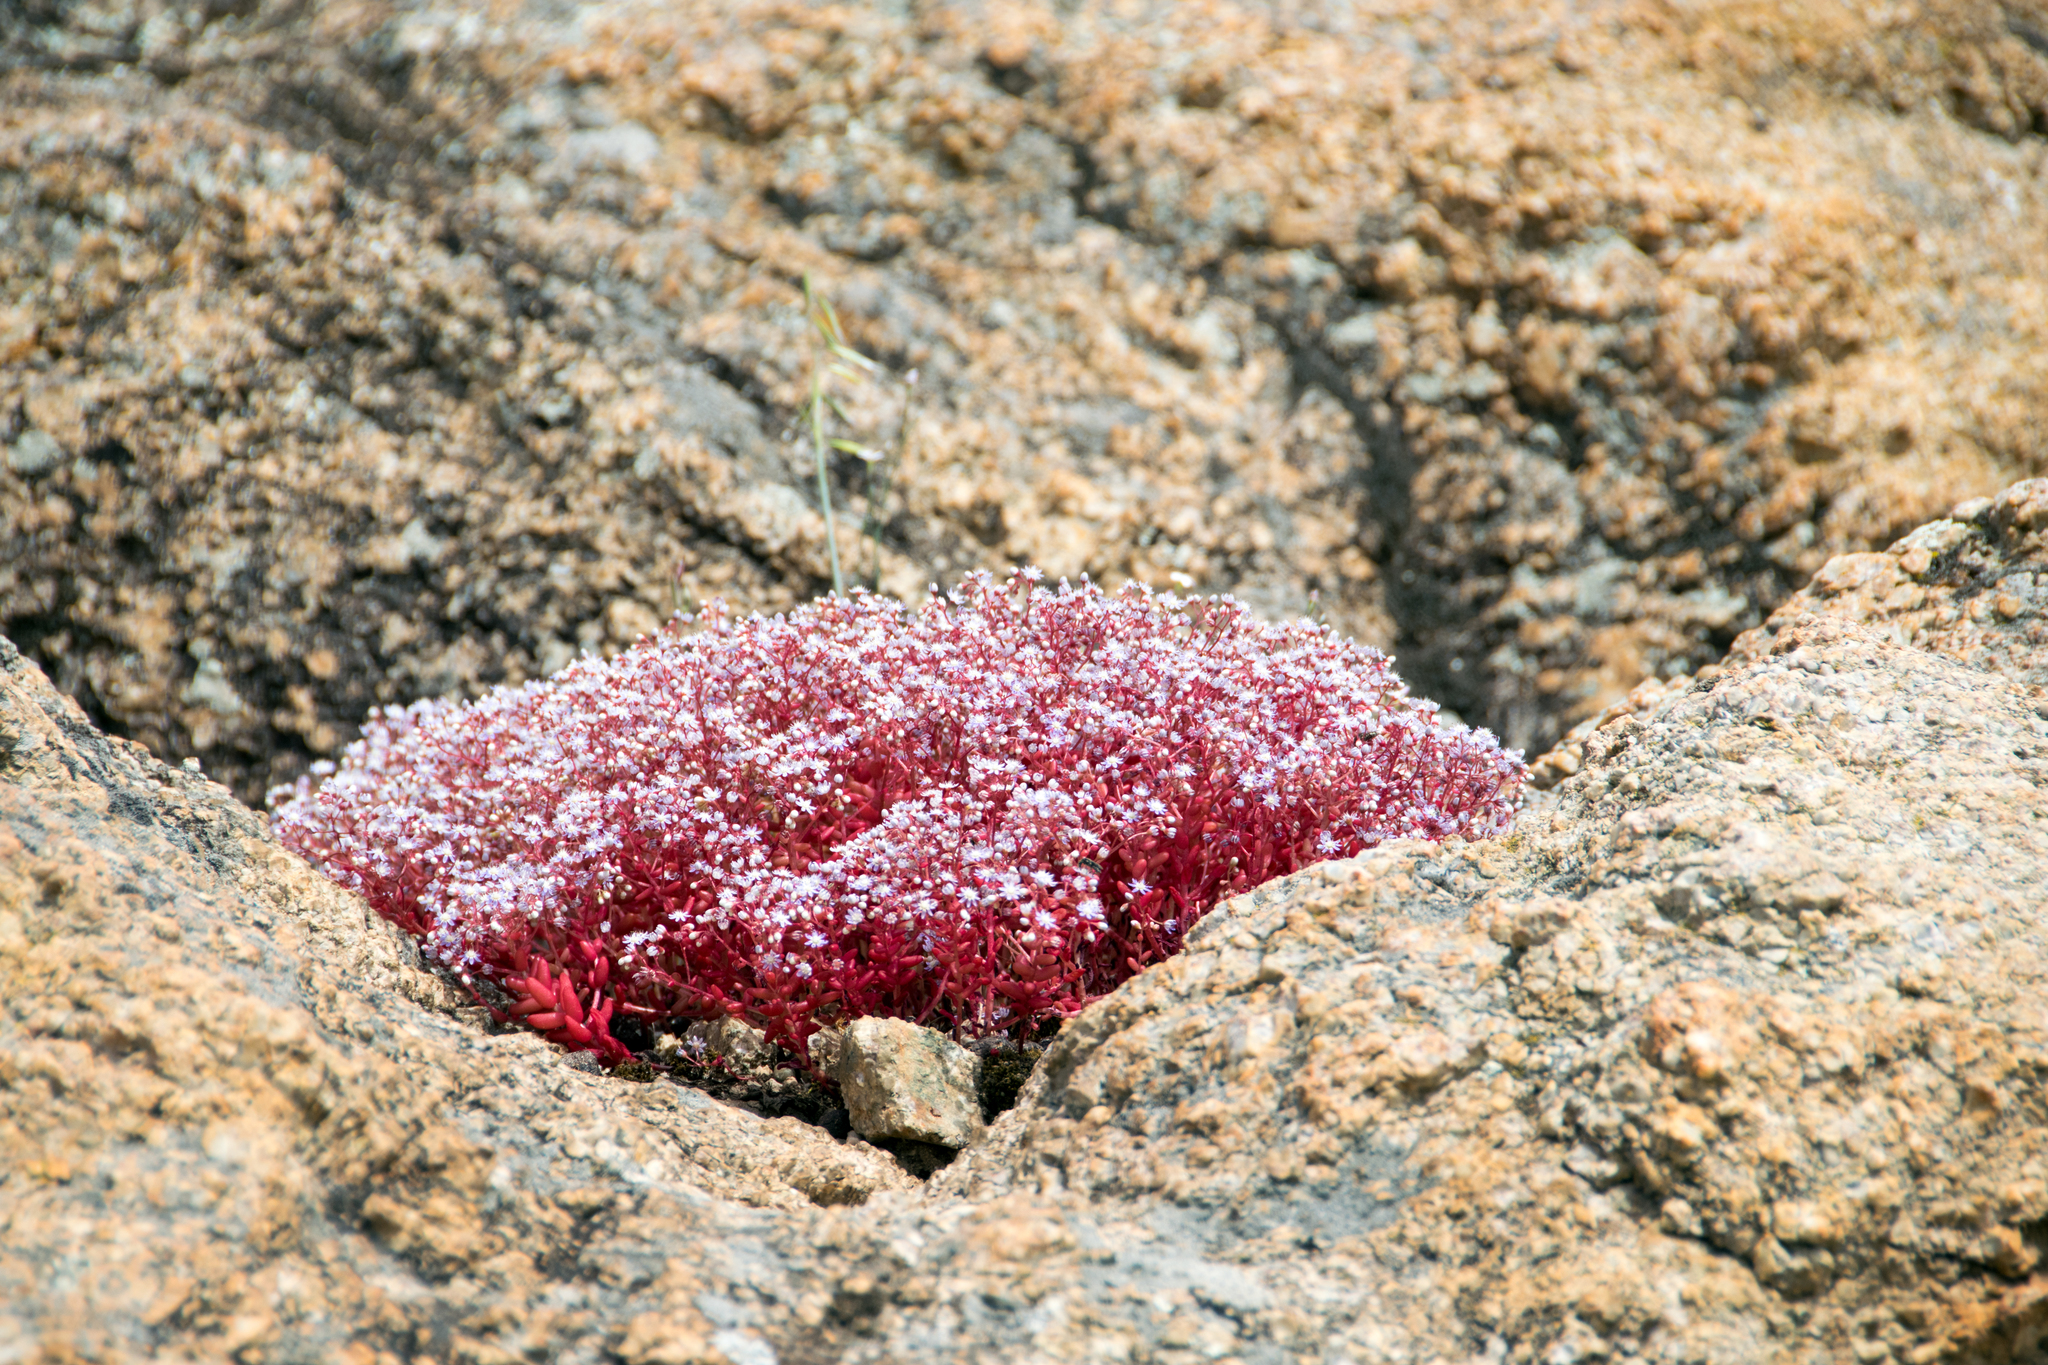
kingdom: Plantae
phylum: Tracheophyta
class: Magnoliopsida
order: Saxifragales
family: Crassulaceae
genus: Sedum
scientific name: Sedum caeruleum
